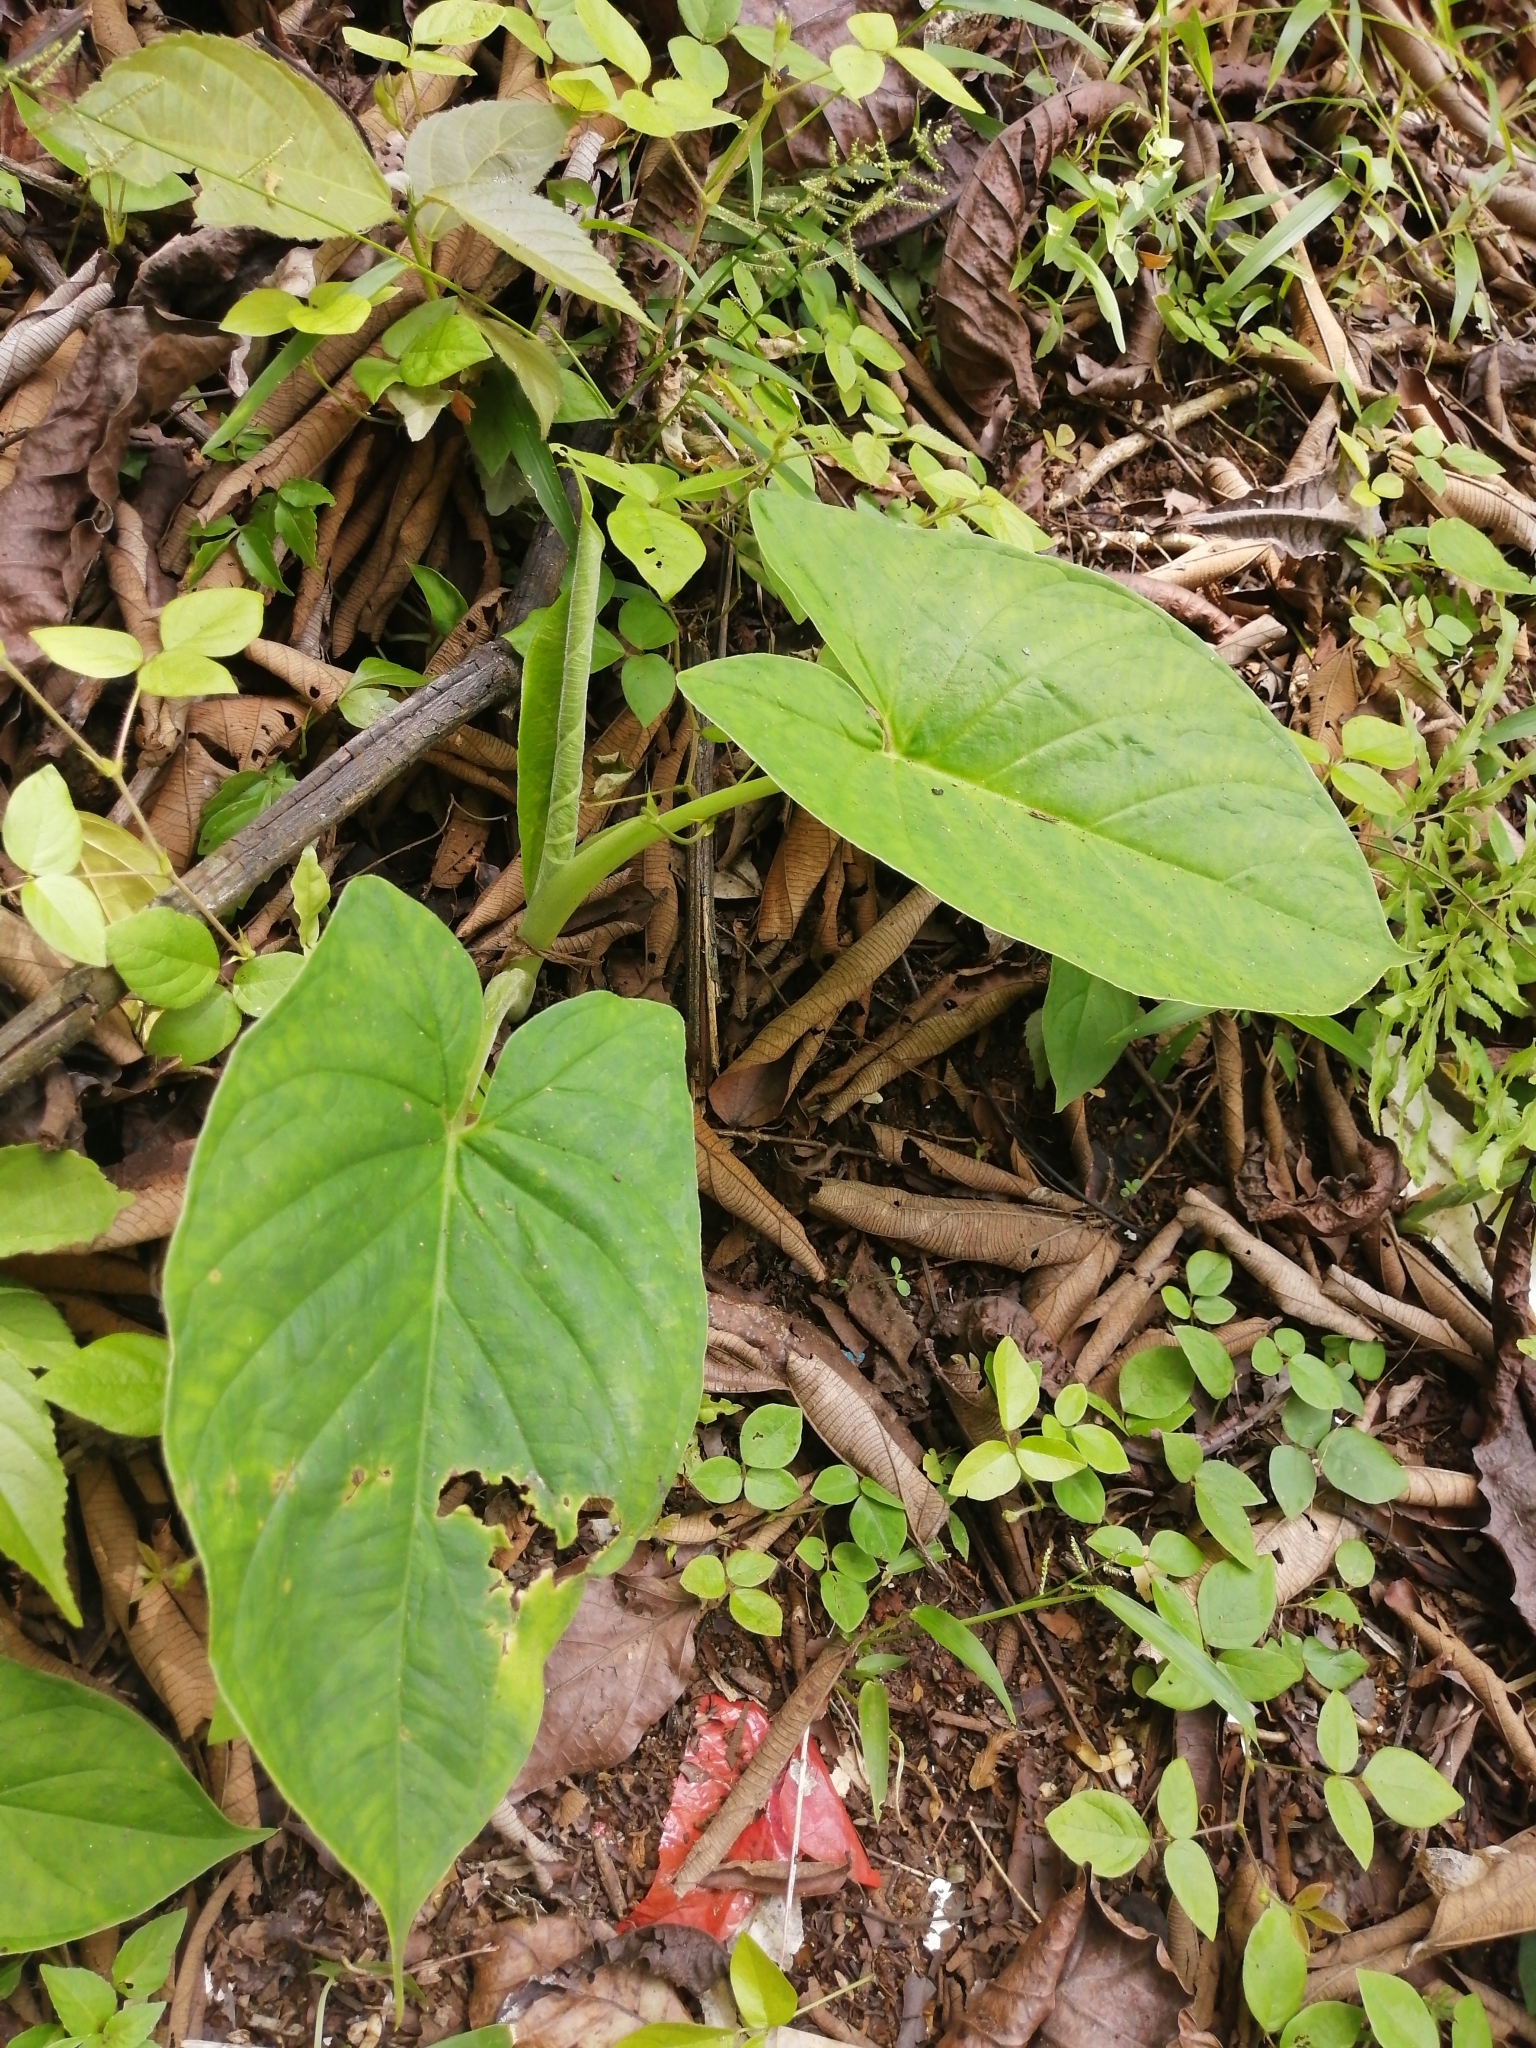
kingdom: Plantae
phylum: Tracheophyta
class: Liliopsida
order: Alismatales
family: Araceae
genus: Xanthosoma
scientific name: Xanthosoma mexicanum
